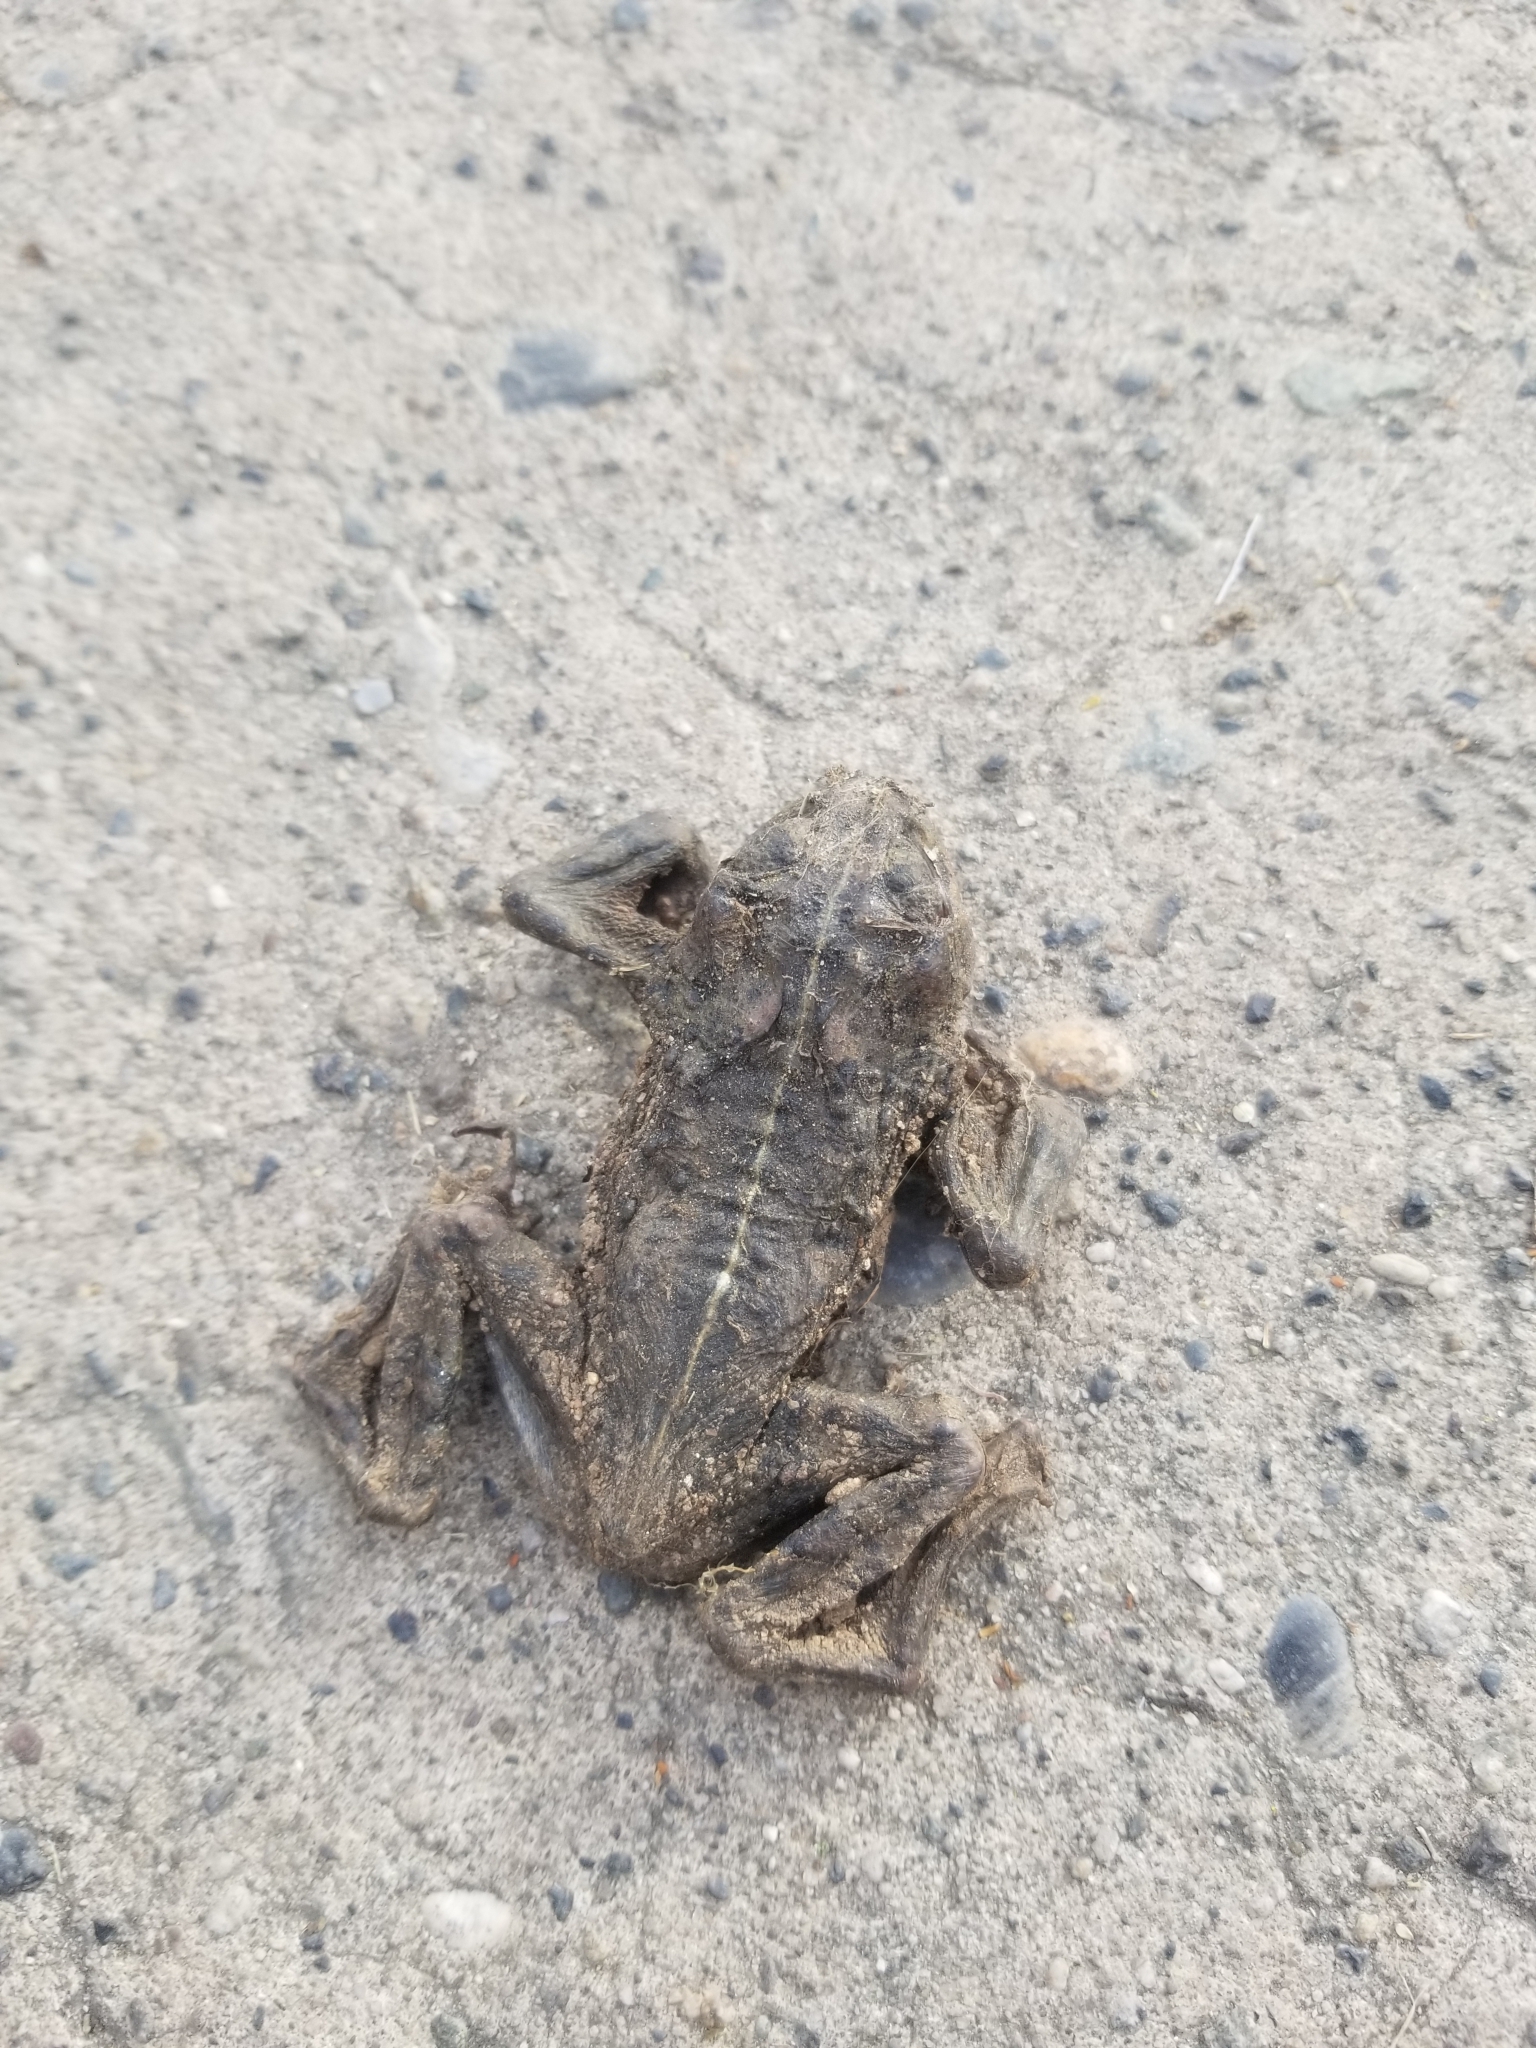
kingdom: Animalia
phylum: Chordata
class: Amphibia
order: Anura
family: Bufonidae
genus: Anaxyrus
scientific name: Anaxyrus boreas
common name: Western toad
